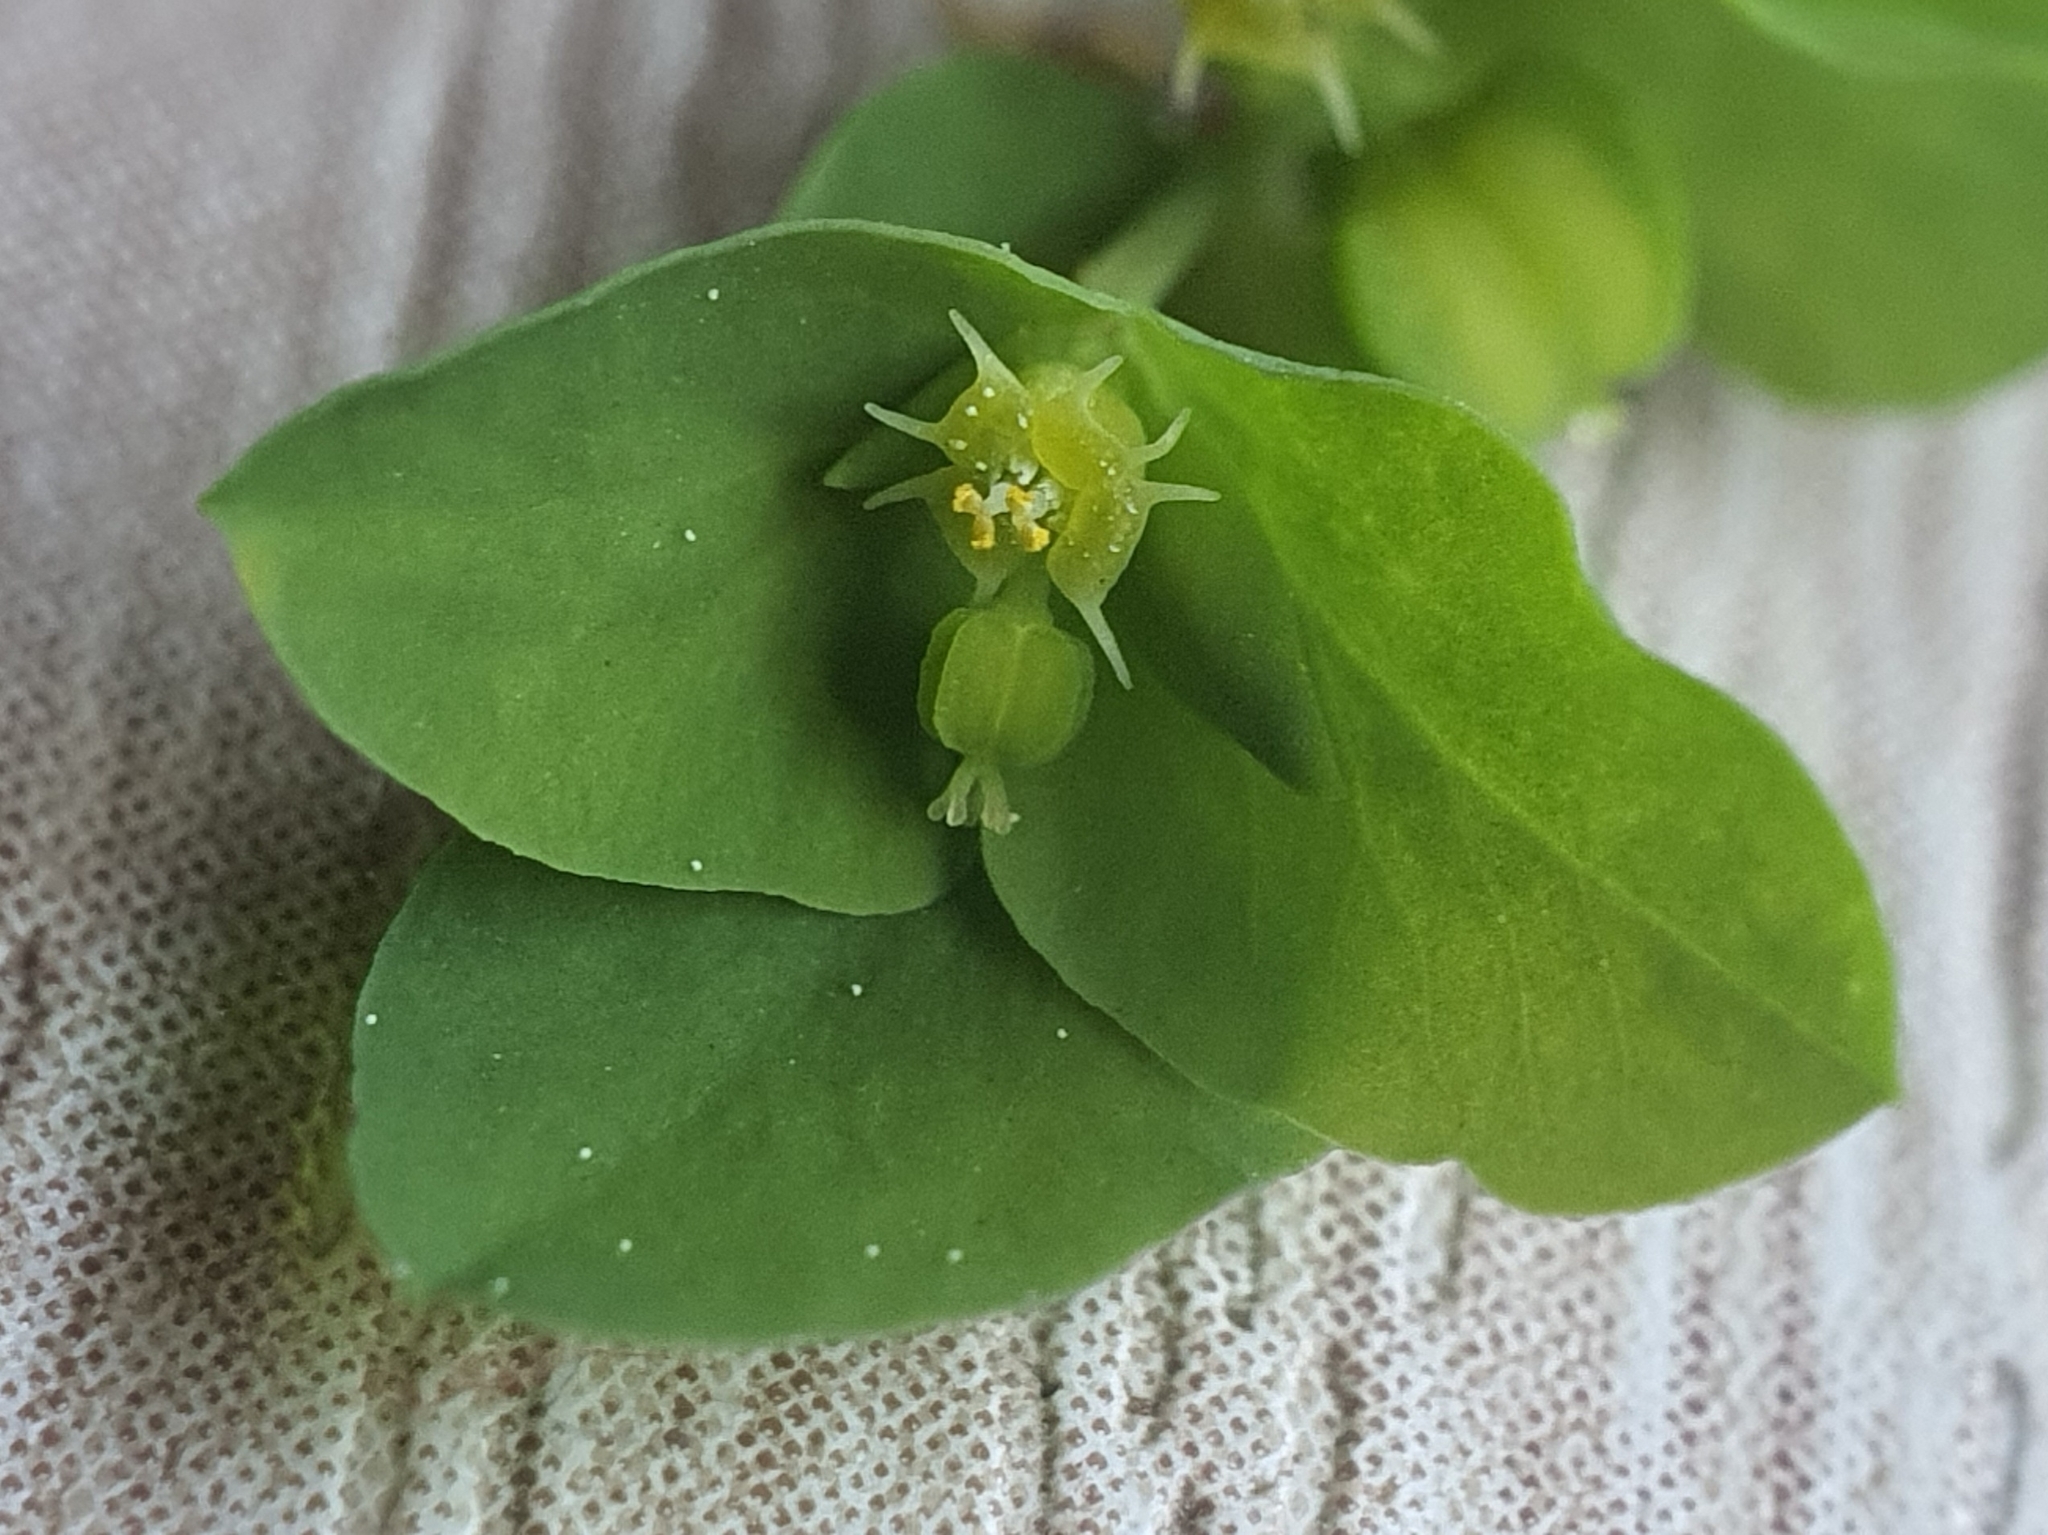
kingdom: Plantae
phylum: Tracheophyta
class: Magnoliopsida
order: Malpighiales
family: Euphorbiaceae
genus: Euphorbia
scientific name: Euphorbia peplus
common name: Petty spurge
